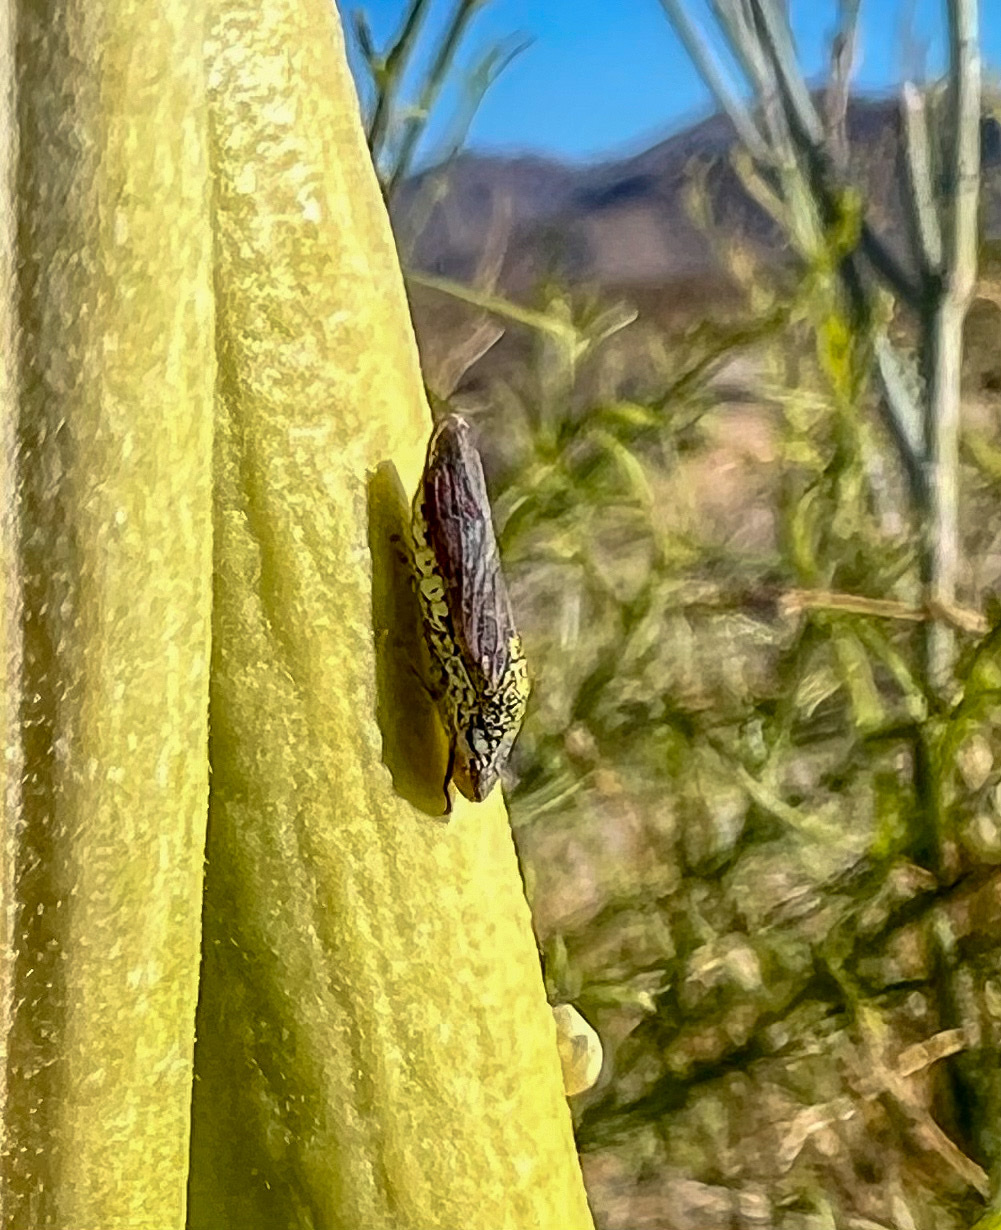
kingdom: Animalia
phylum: Arthropoda
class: Insecta
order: Hemiptera
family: Cicadellidae
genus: Homalodisca
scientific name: Homalodisca liturata
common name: Lacertate sharpshooter
